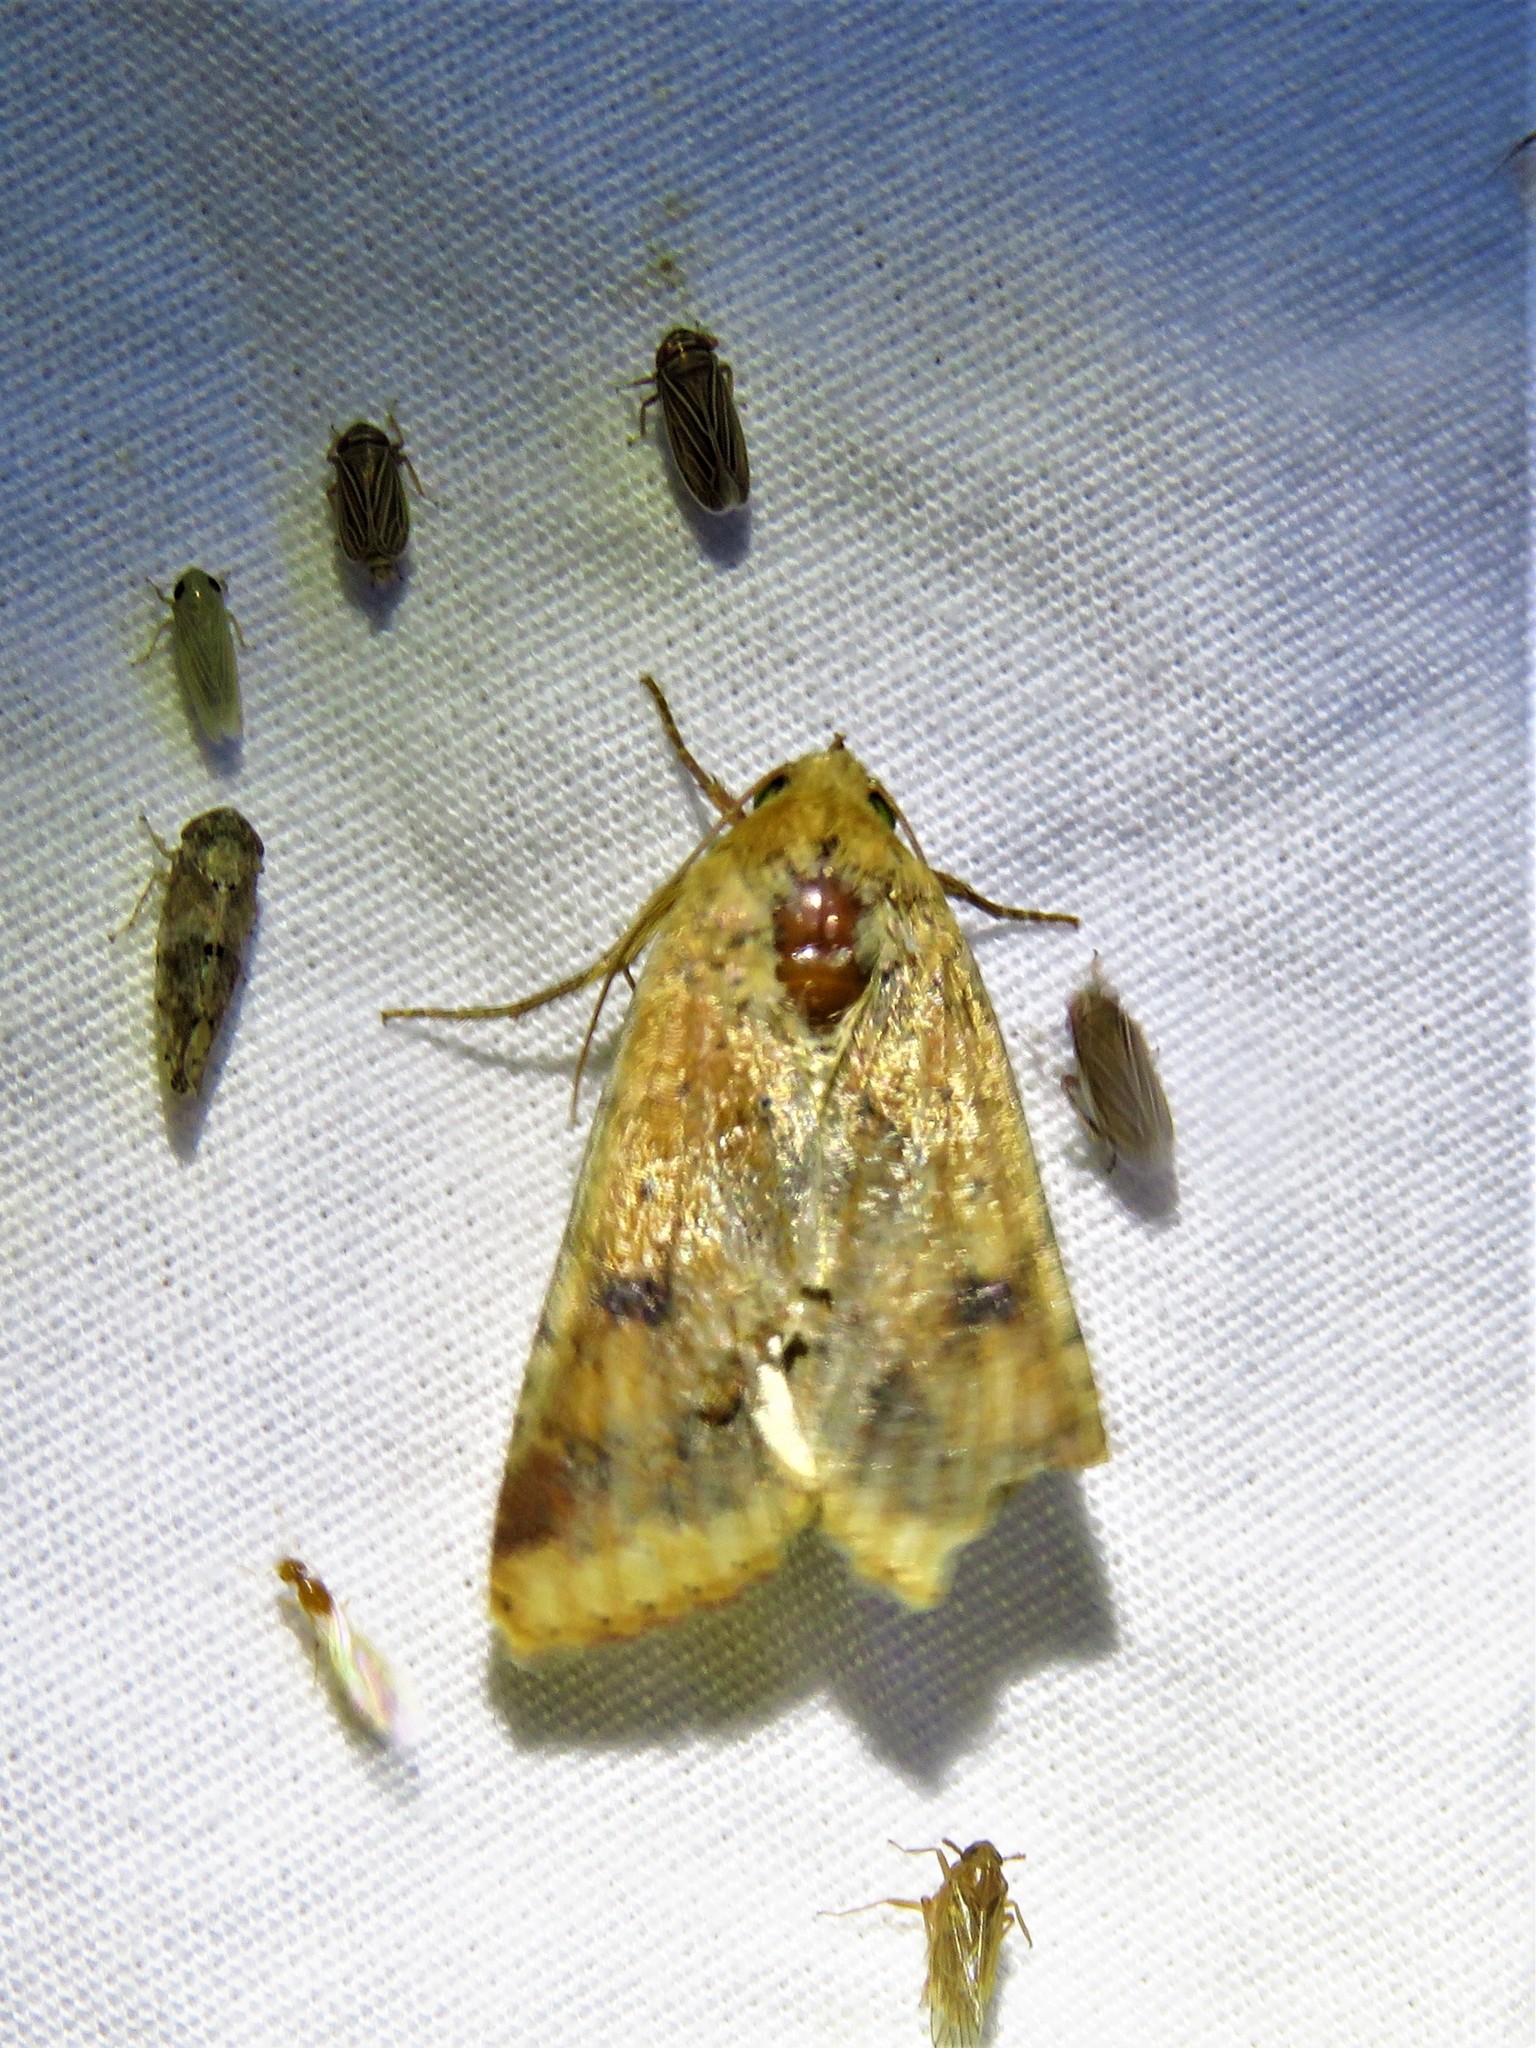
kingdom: Animalia
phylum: Arthropoda
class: Insecta
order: Lepidoptera
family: Noctuidae
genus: Helicoverpa
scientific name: Helicoverpa zea
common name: Bollworm
